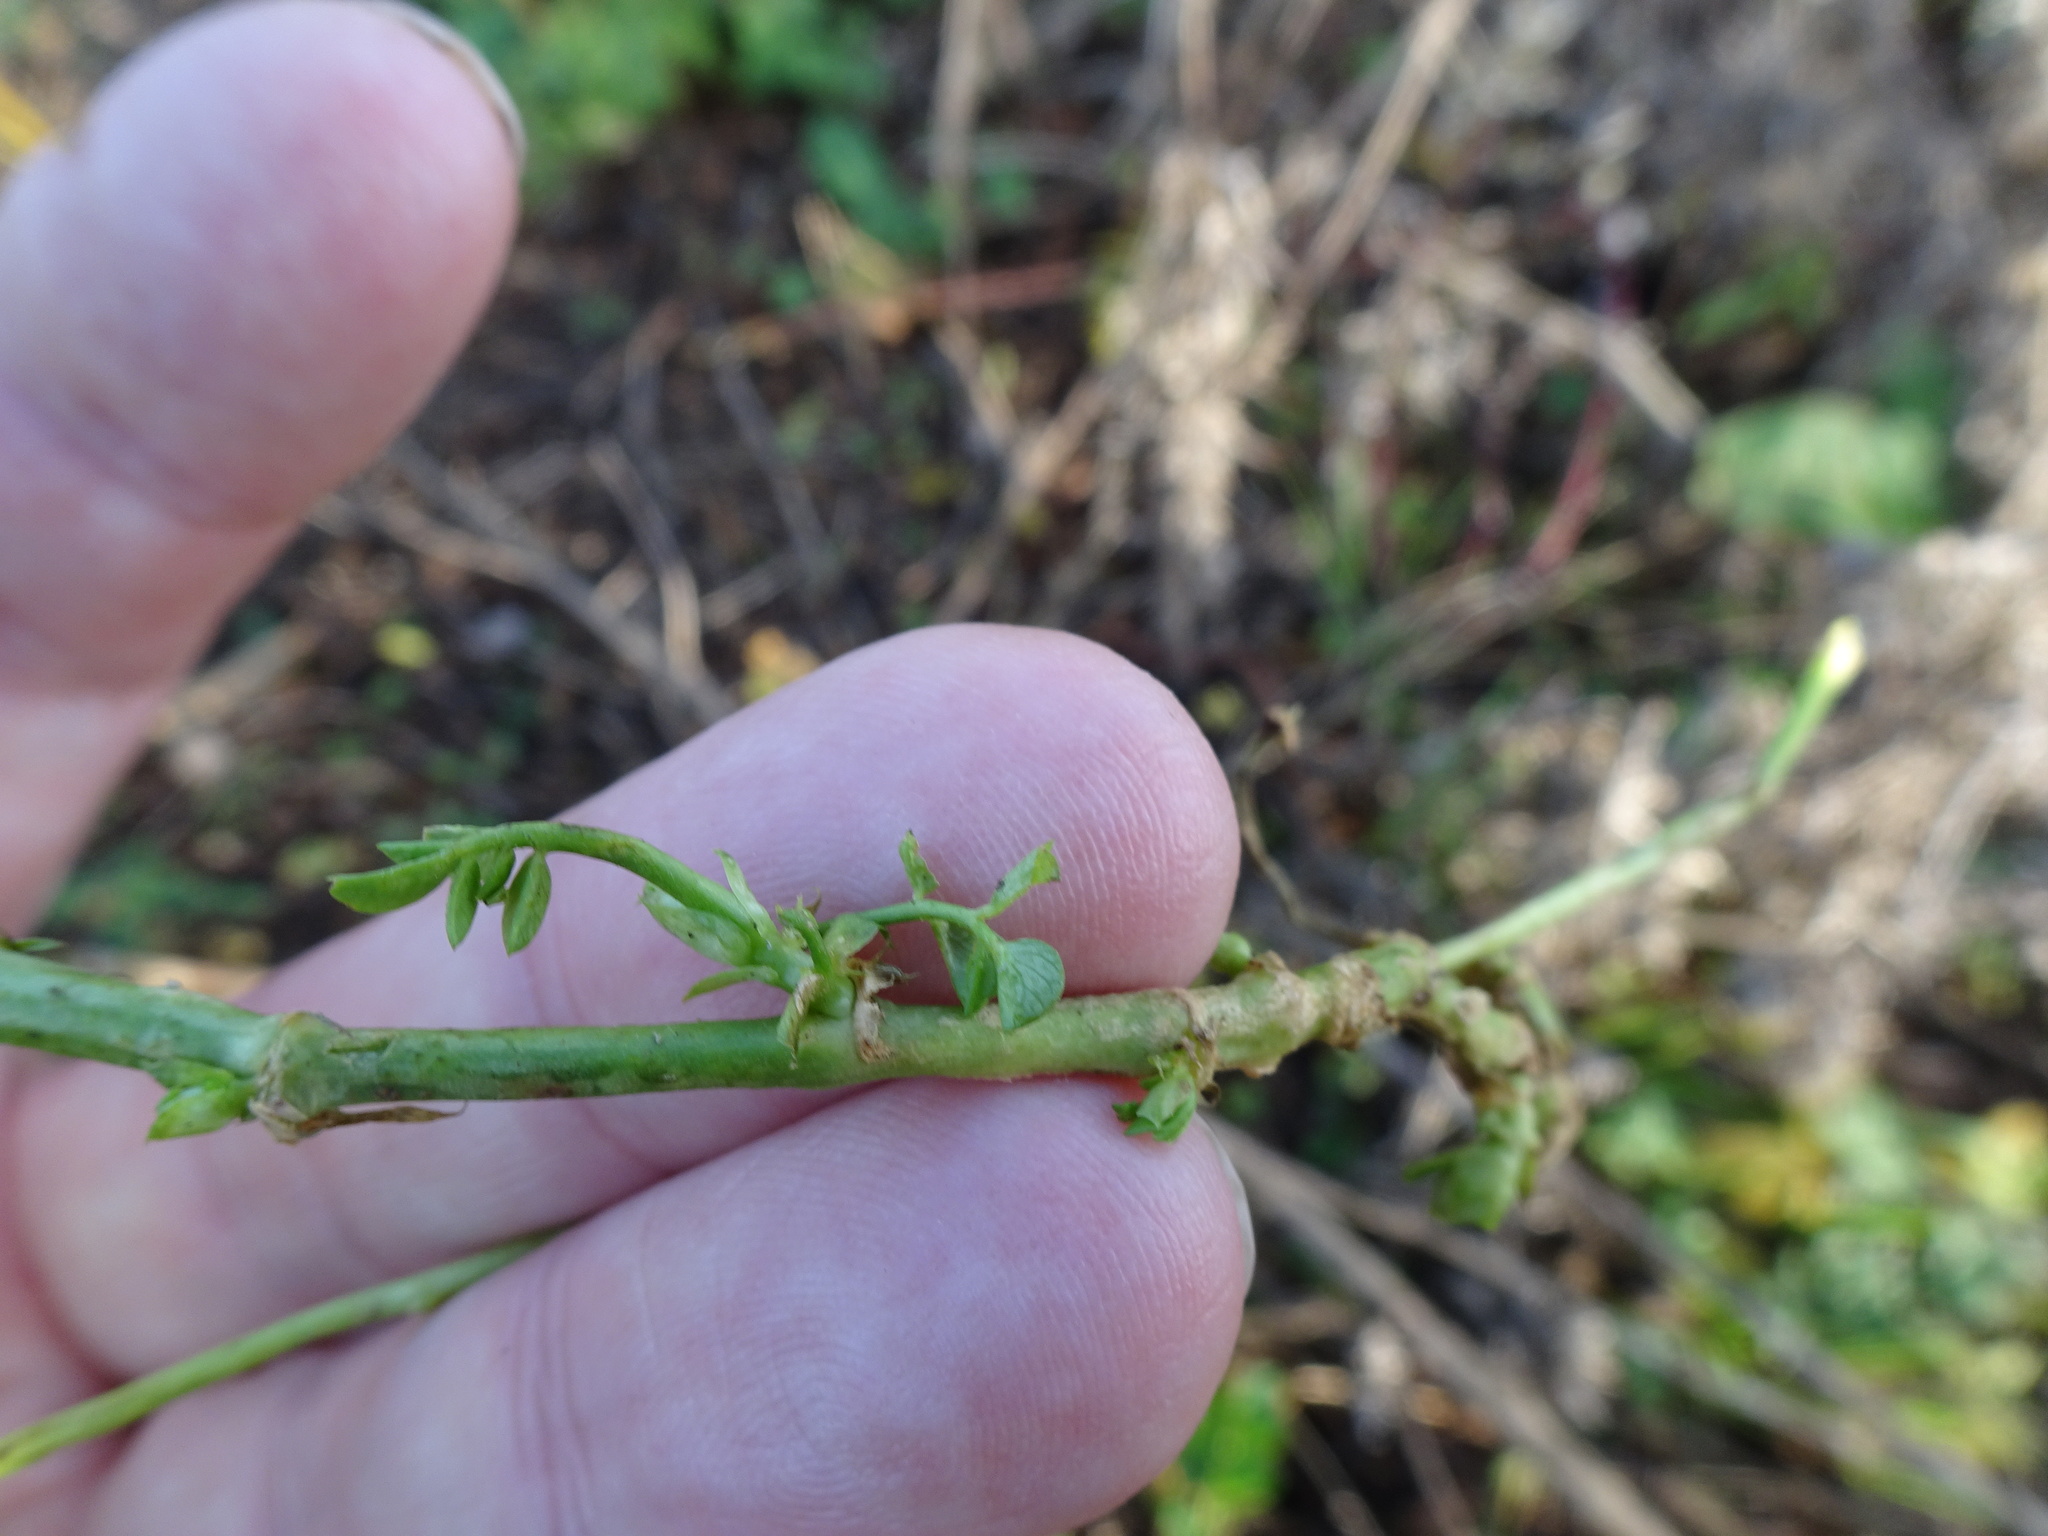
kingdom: Plantae
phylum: Tracheophyta
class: Magnoliopsida
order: Fabales
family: Fabaceae
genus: Galega
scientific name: Galega officinalis
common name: Goat's-rue
